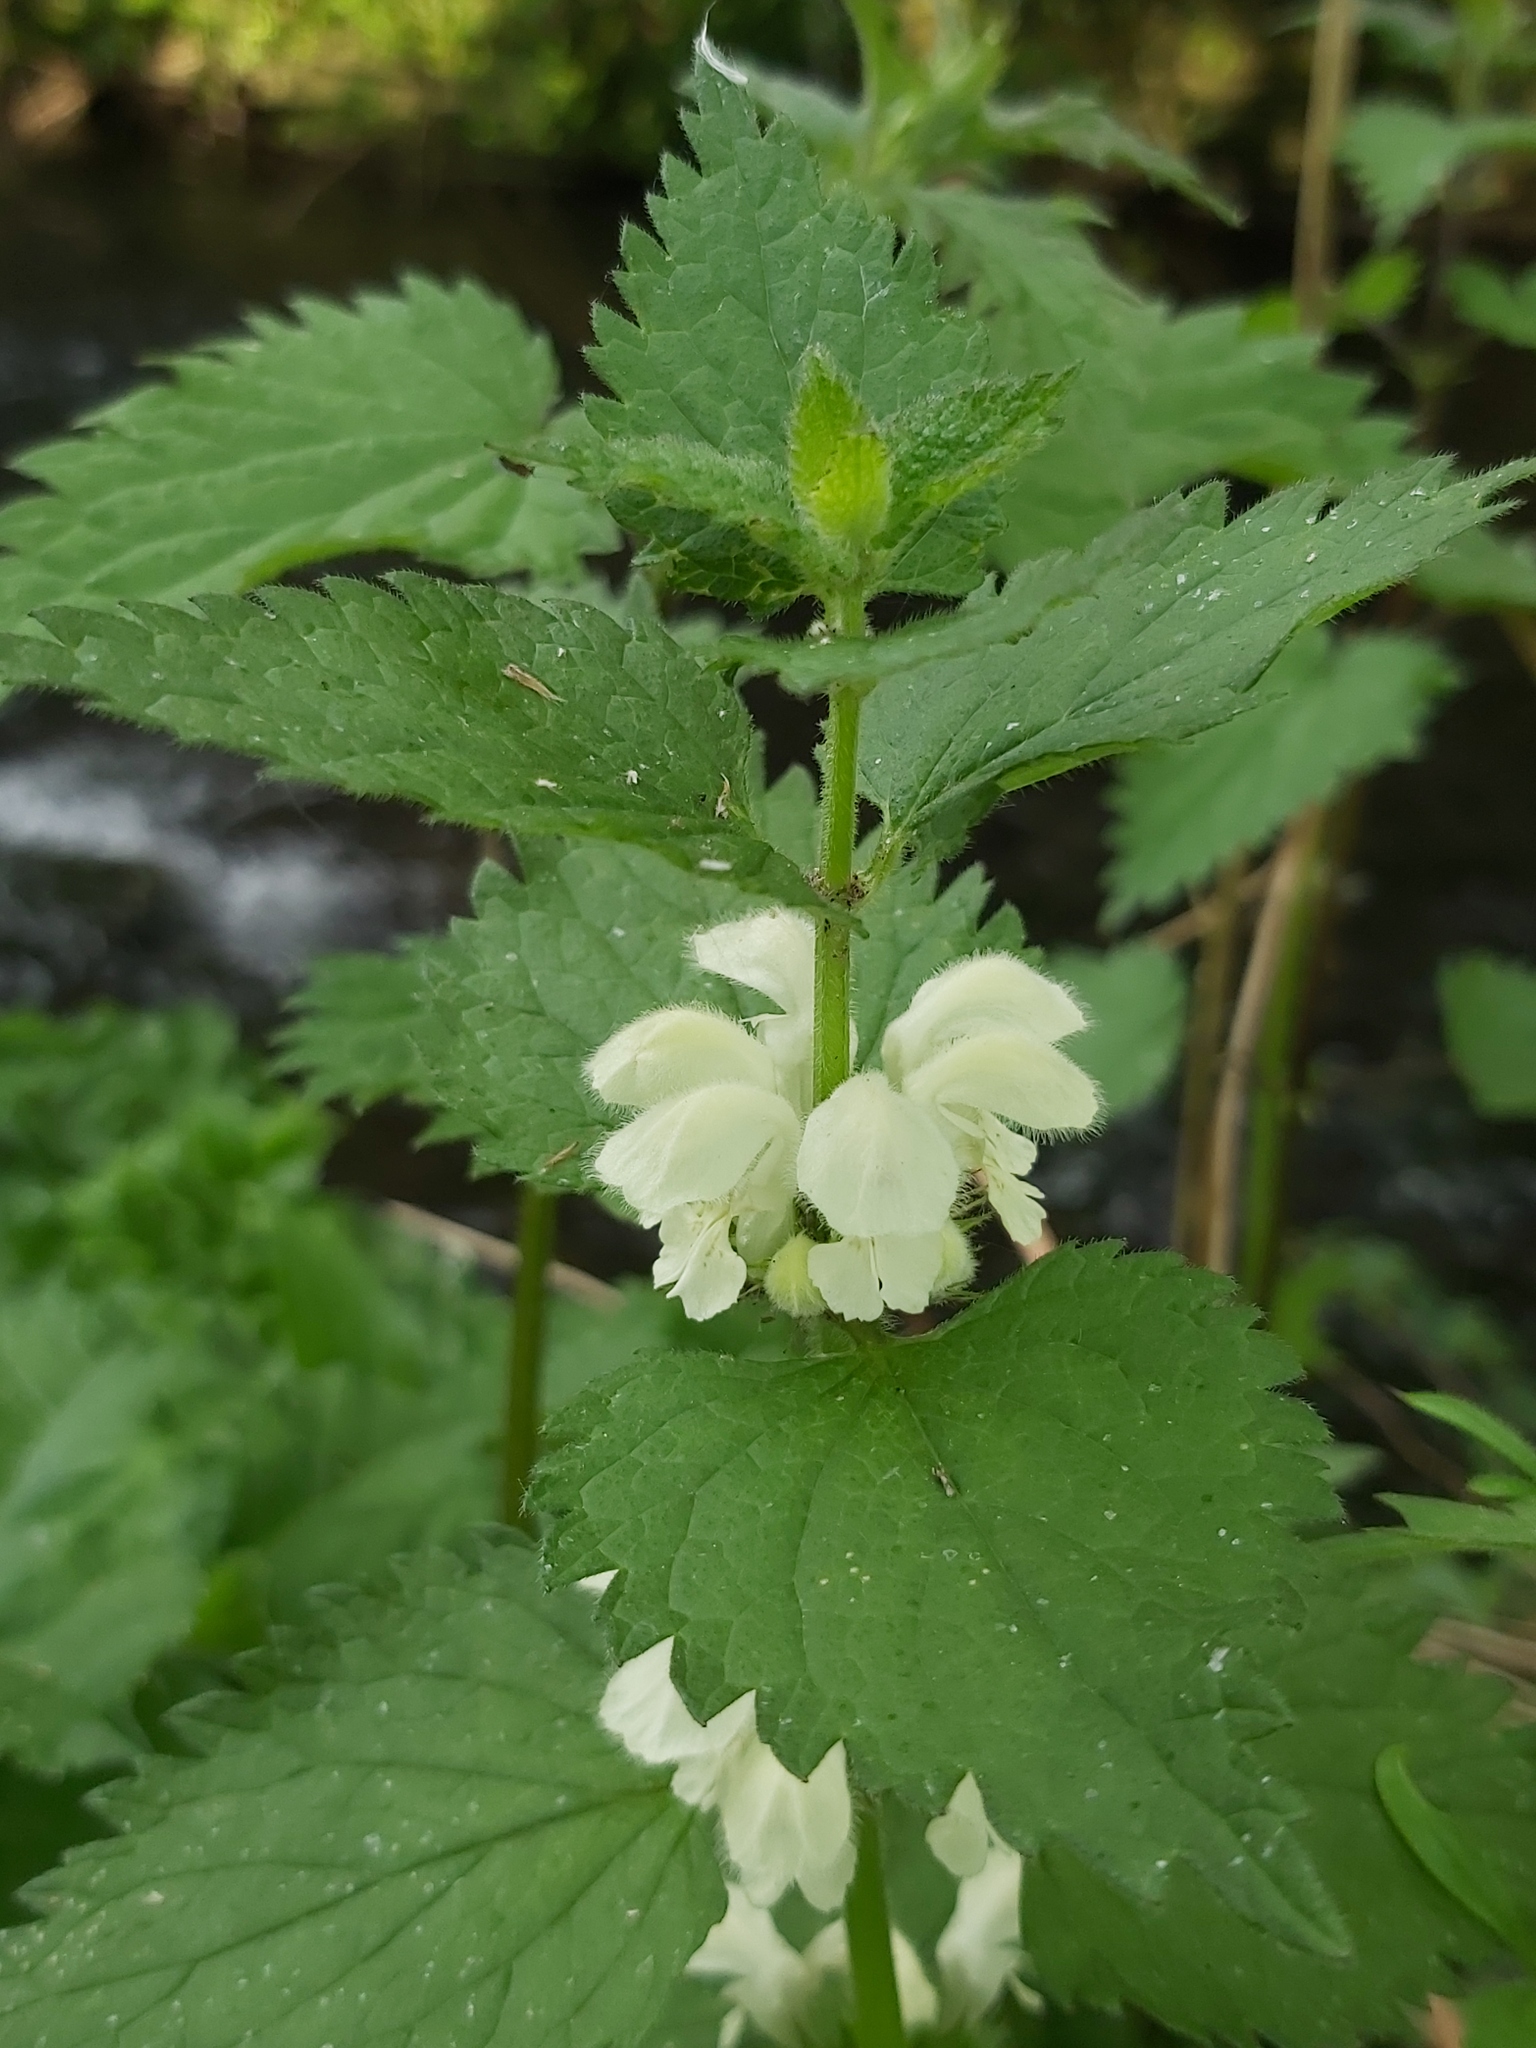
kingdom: Plantae
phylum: Tracheophyta
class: Magnoliopsida
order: Lamiales
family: Lamiaceae
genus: Lamium
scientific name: Lamium album
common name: White dead-nettle
